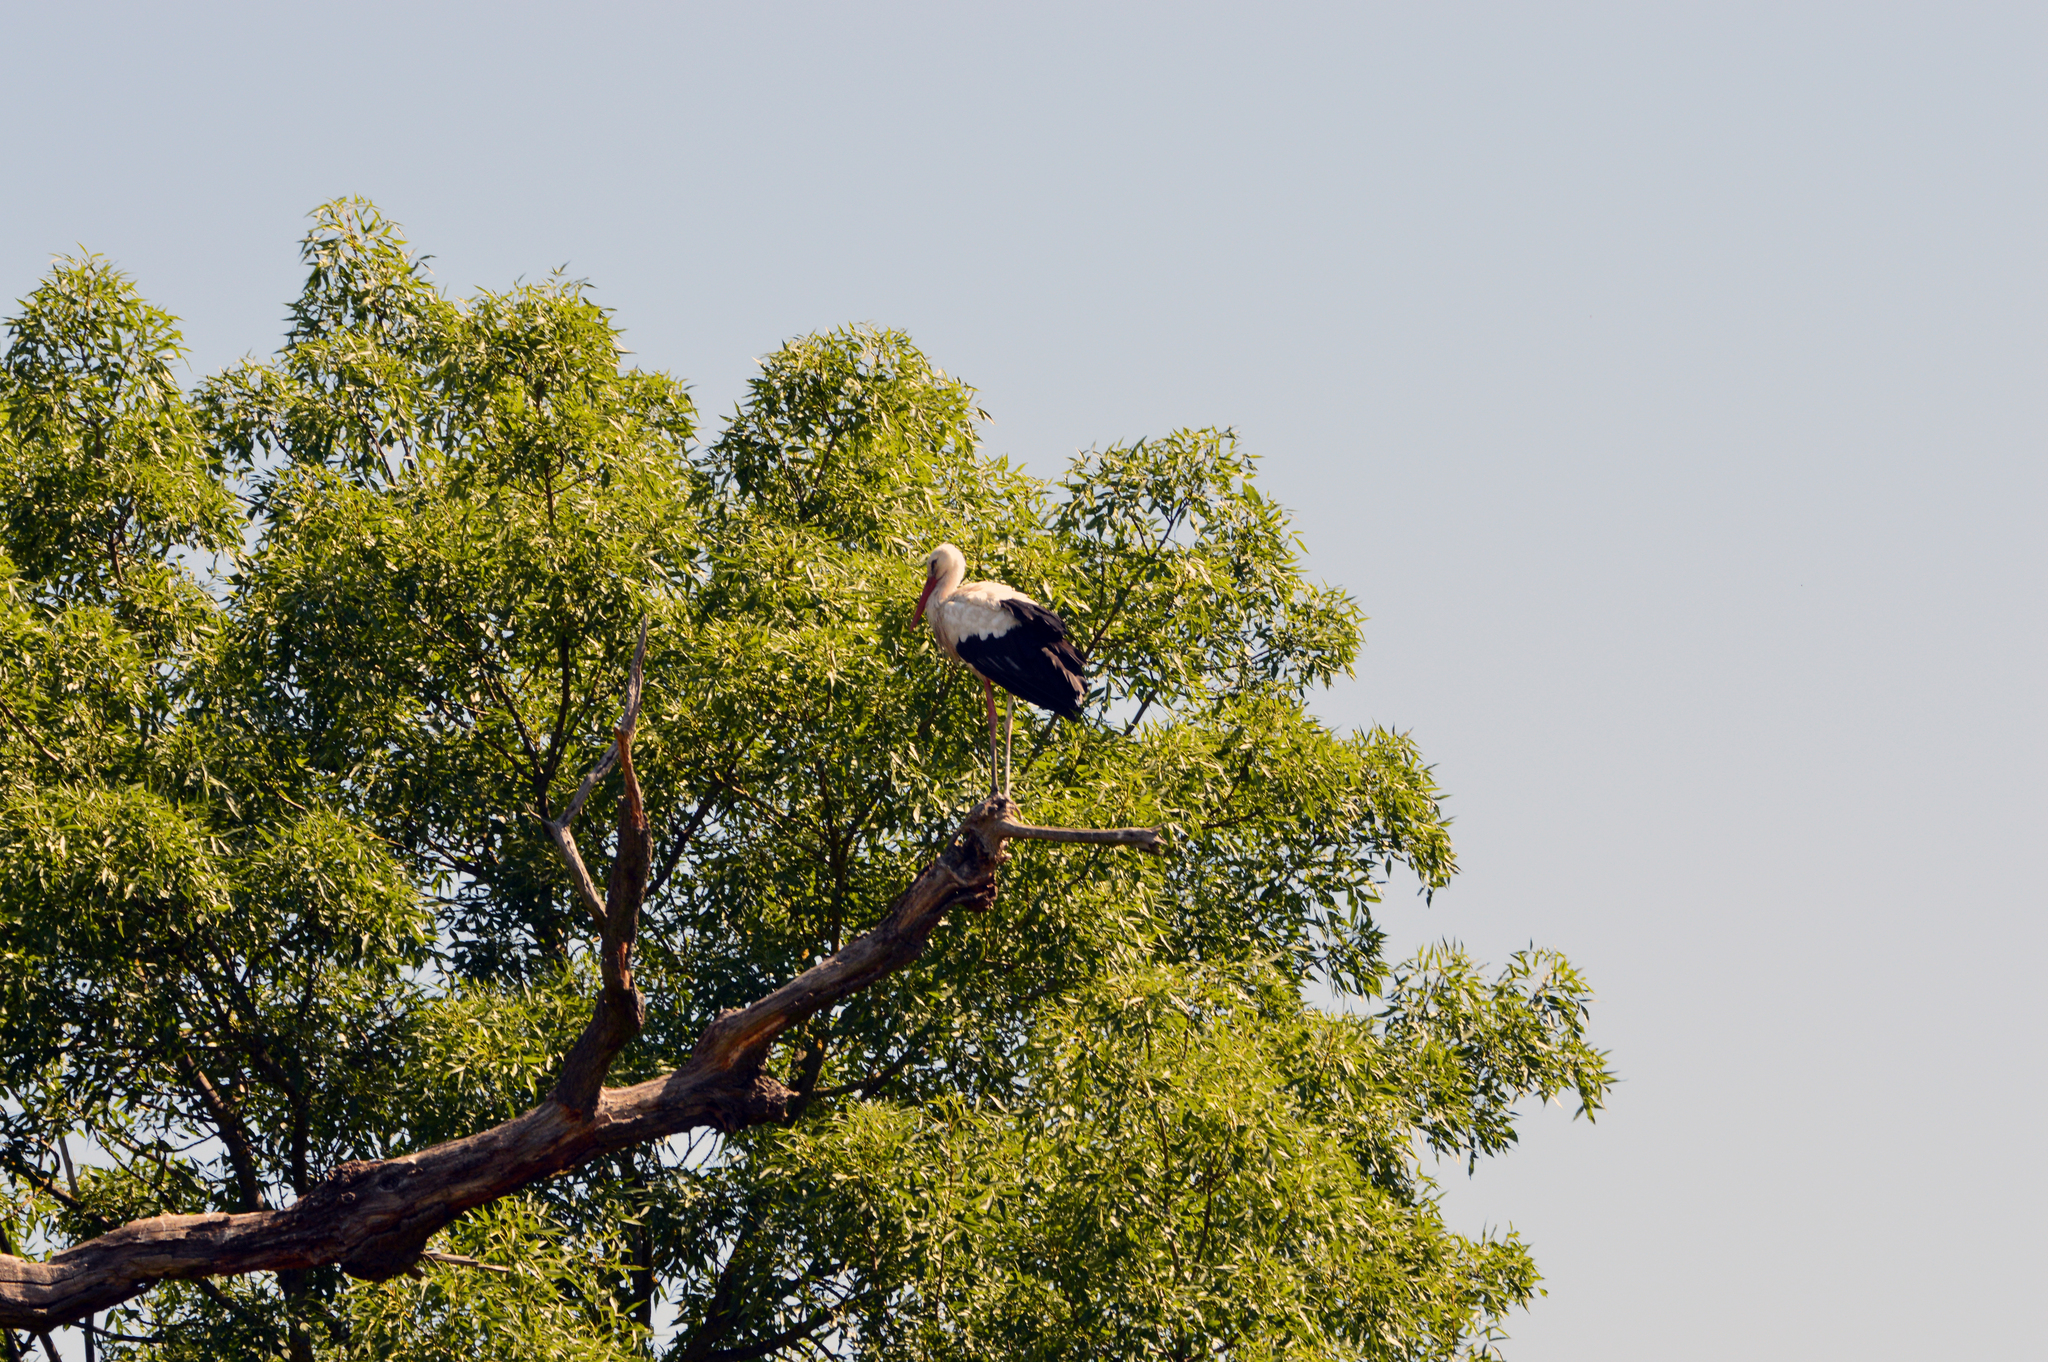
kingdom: Animalia
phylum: Chordata
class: Aves
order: Ciconiiformes
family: Ciconiidae
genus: Ciconia
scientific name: Ciconia ciconia
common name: White stork
